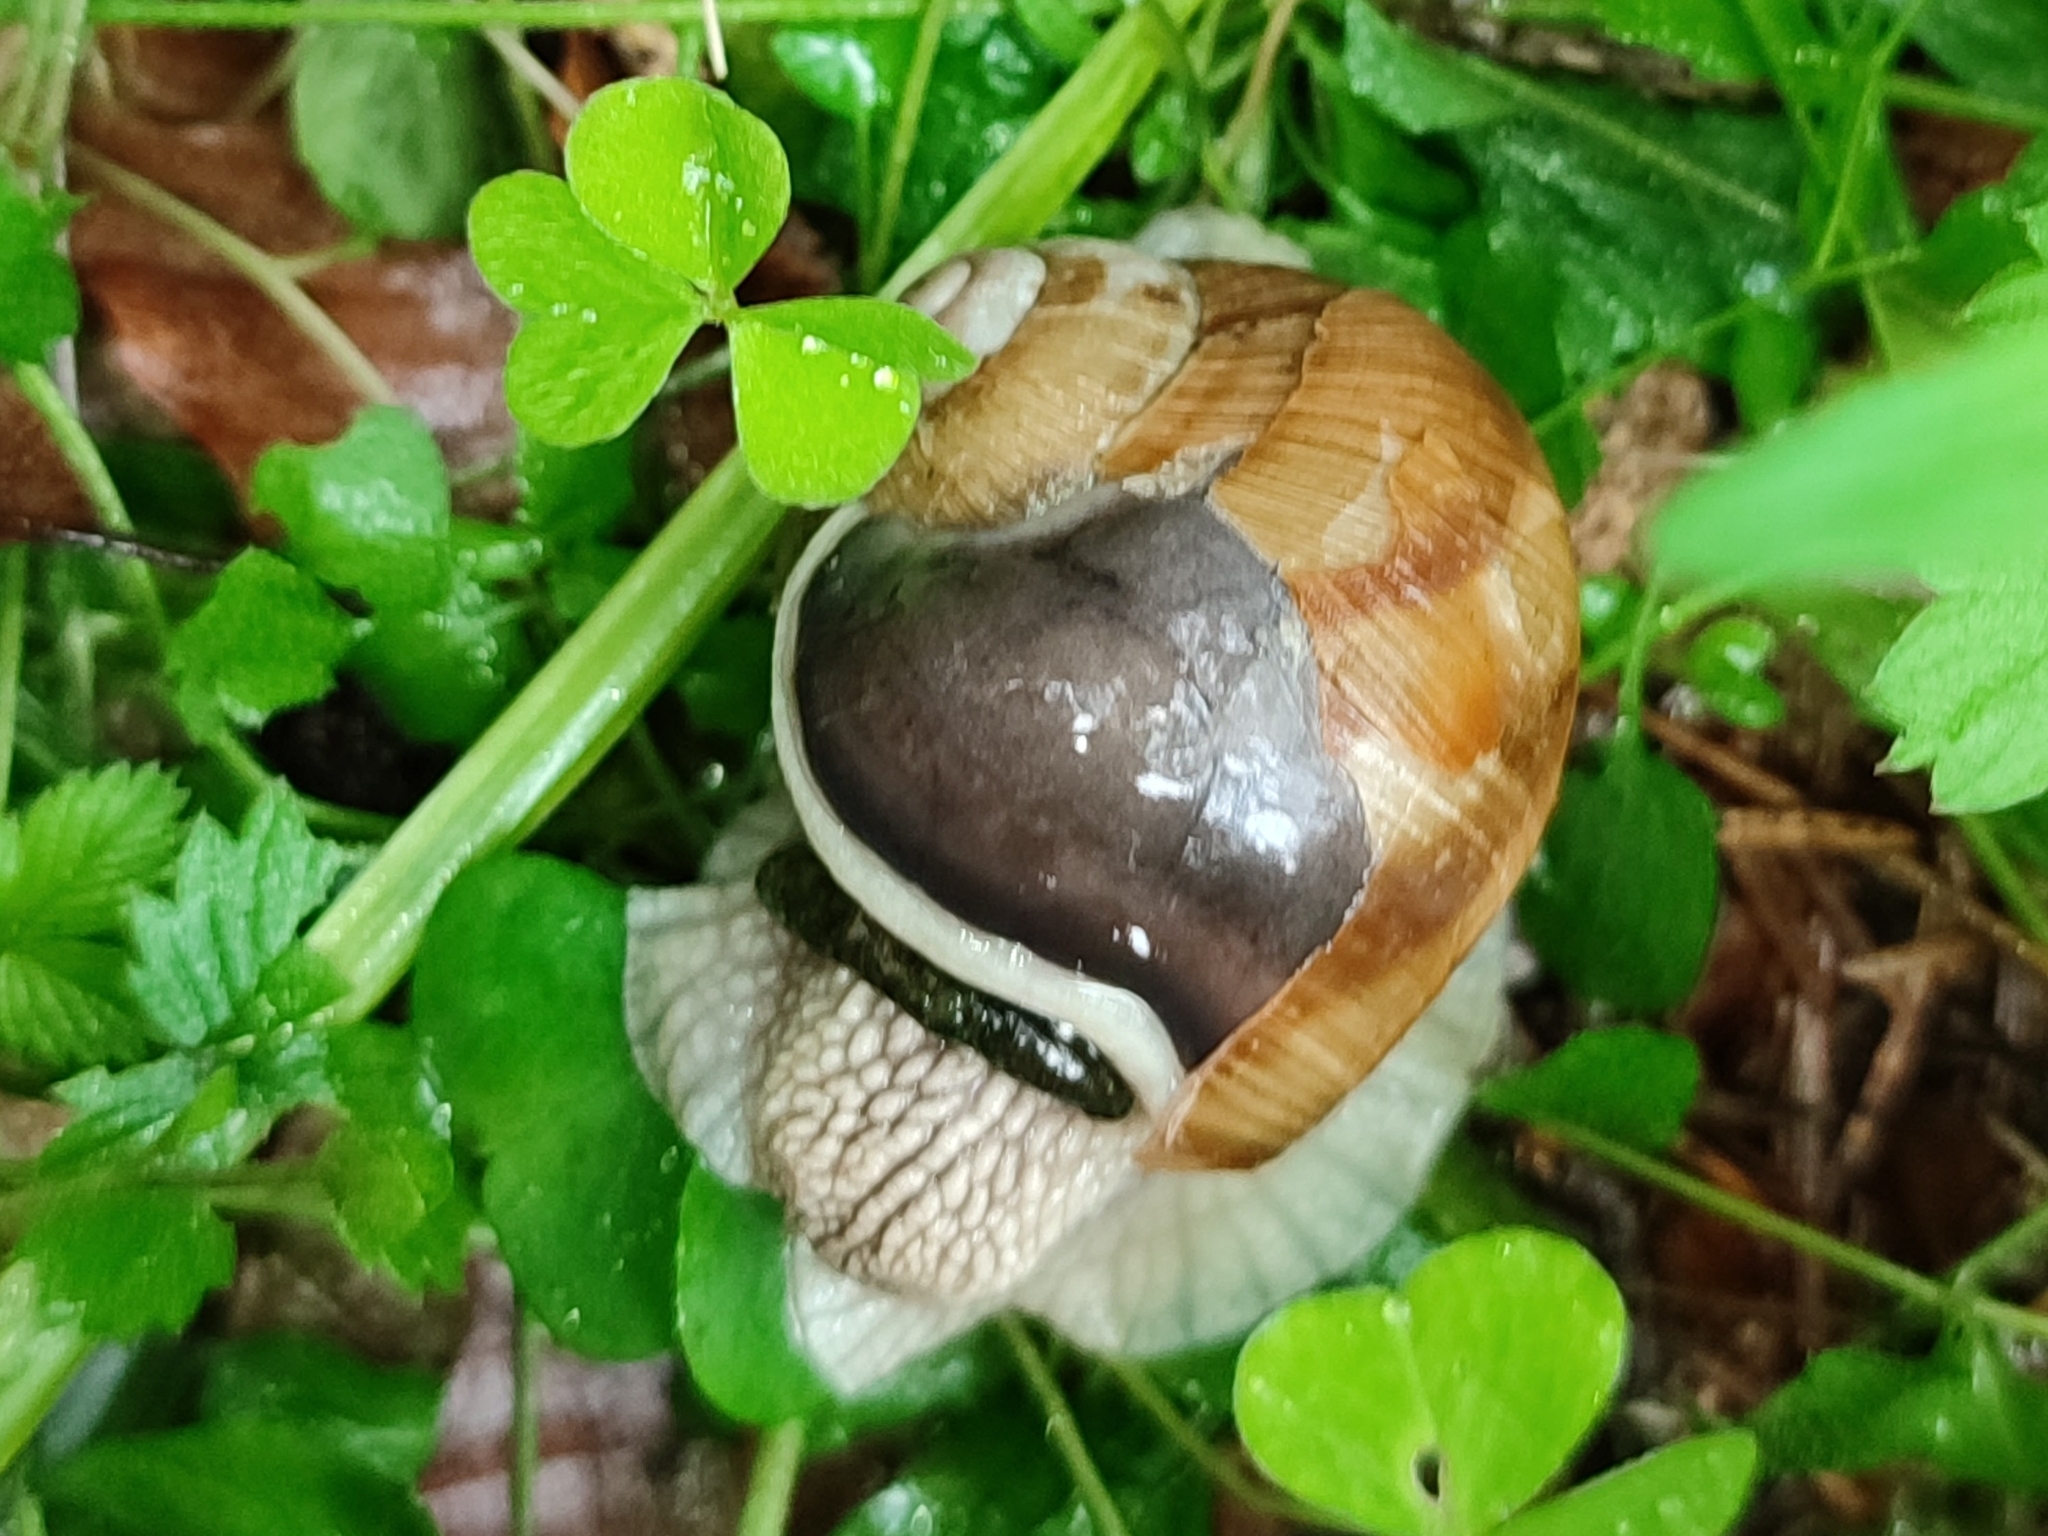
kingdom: Animalia
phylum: Mollusca
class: Gastropoda
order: Stylommatophora
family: Helicidae
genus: Helix
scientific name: Helix pomatia
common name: Roman snail
